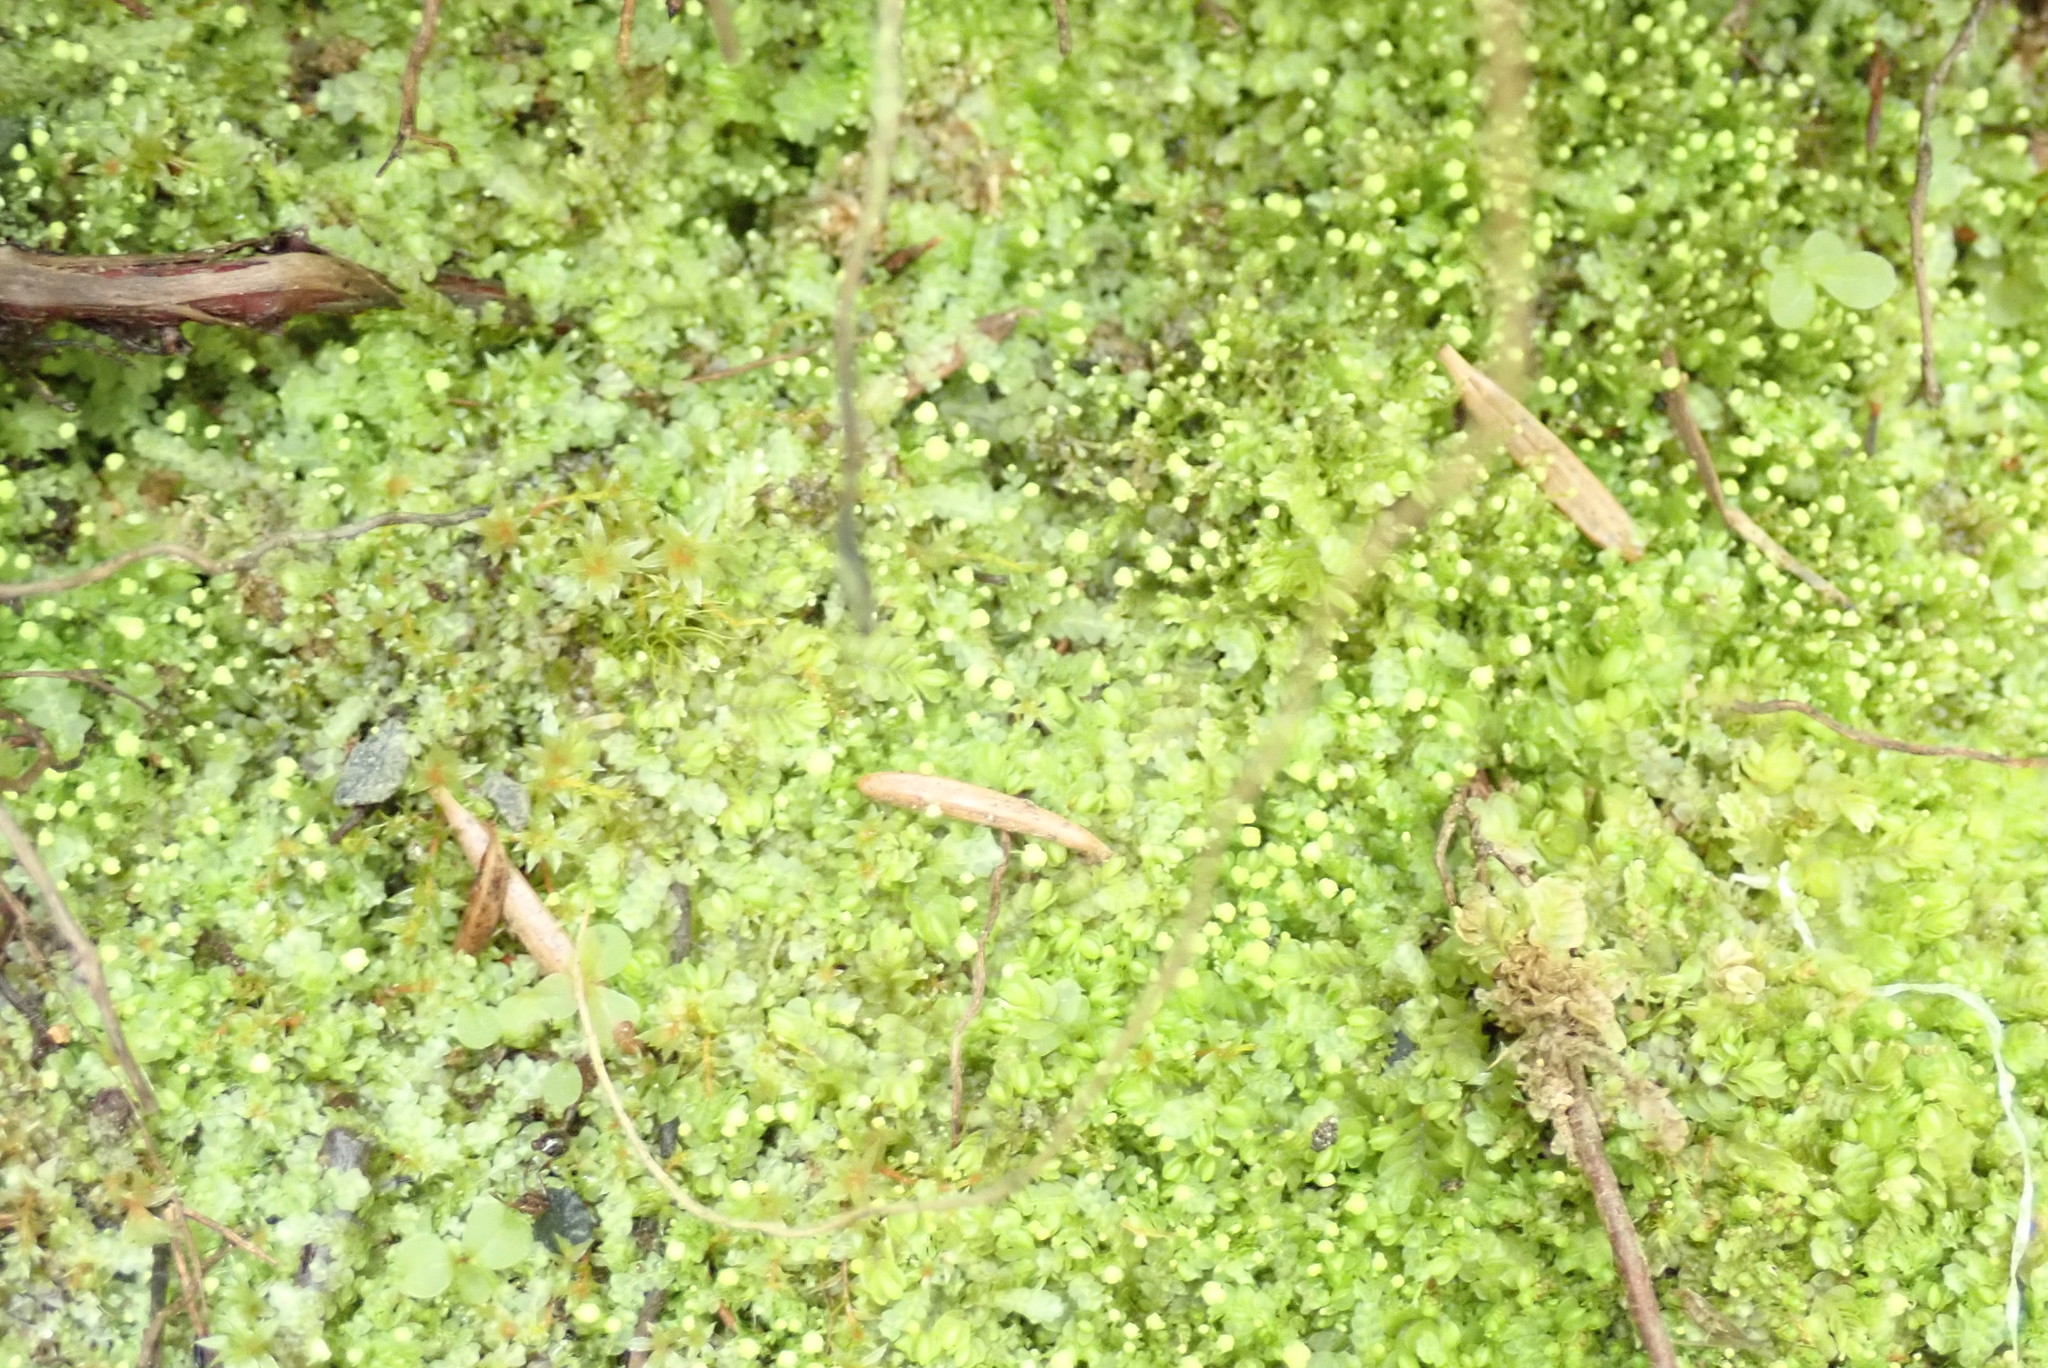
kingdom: Plantae
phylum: Marchantiophyta
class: Jungermanniopsida
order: Jungermanniales
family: Calypogeiaceae
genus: Calypogeia
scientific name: Calypogeia muelleriana
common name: Mueller s pouchwort
